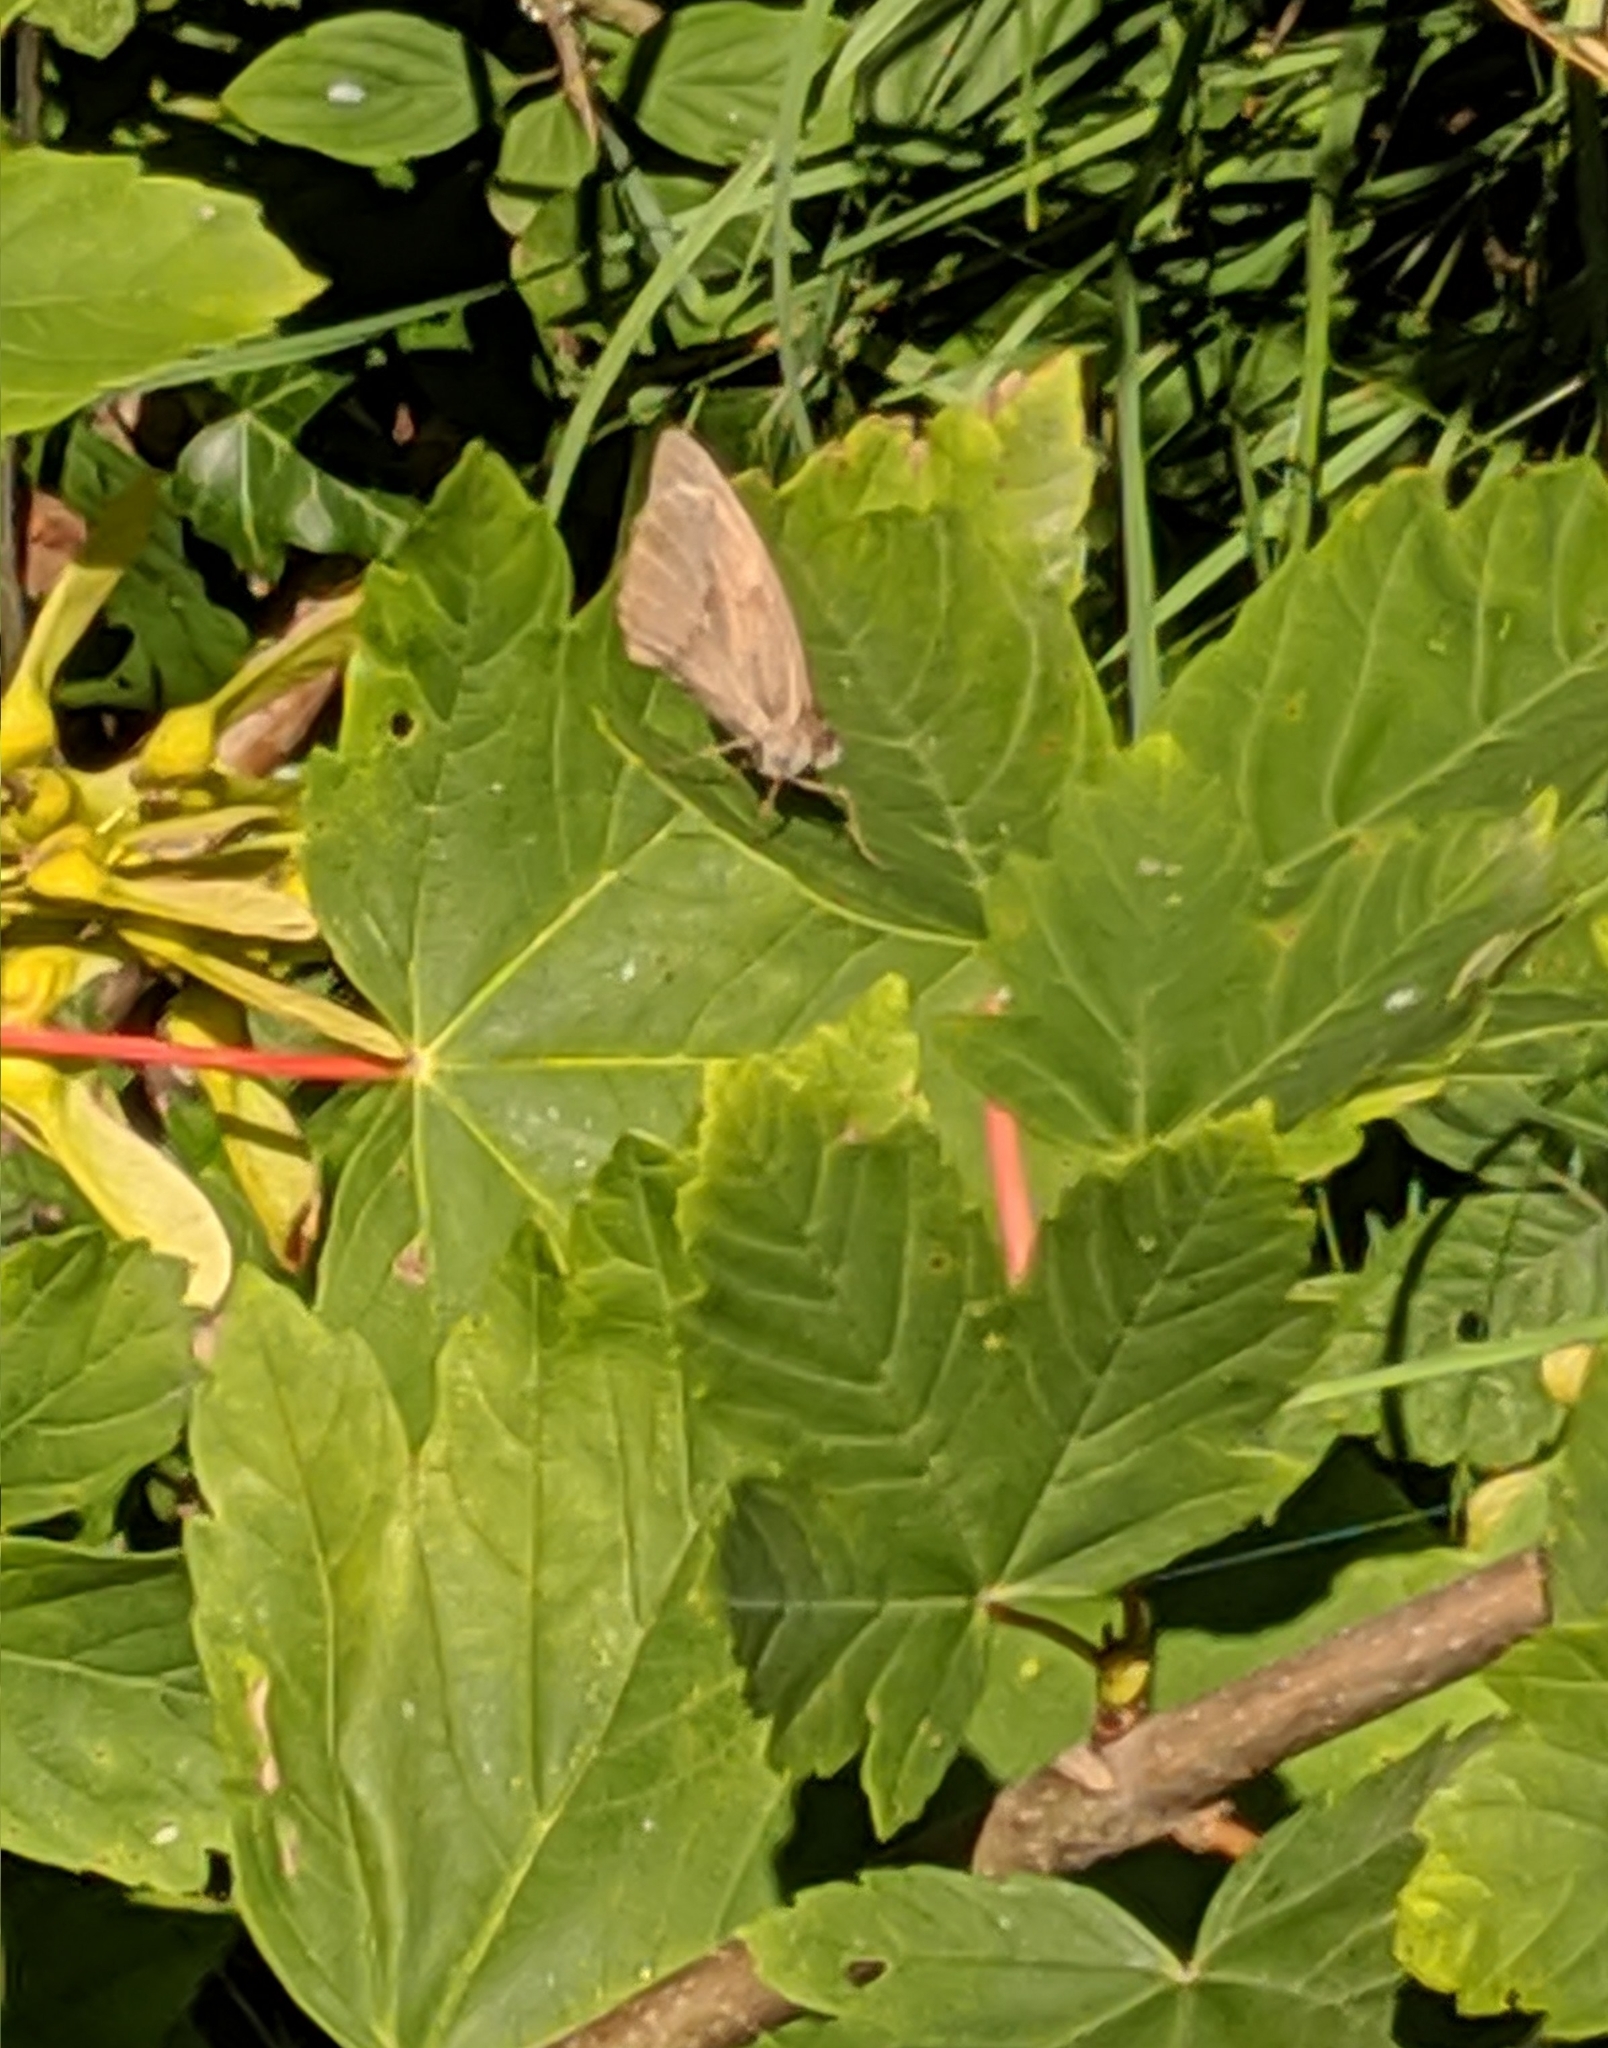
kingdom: Animalia
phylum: Arthropoda
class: Insecta
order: Lepidoptera
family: Nymphalidae
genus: Maniola
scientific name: Maniola jurtina
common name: Meadow brown
